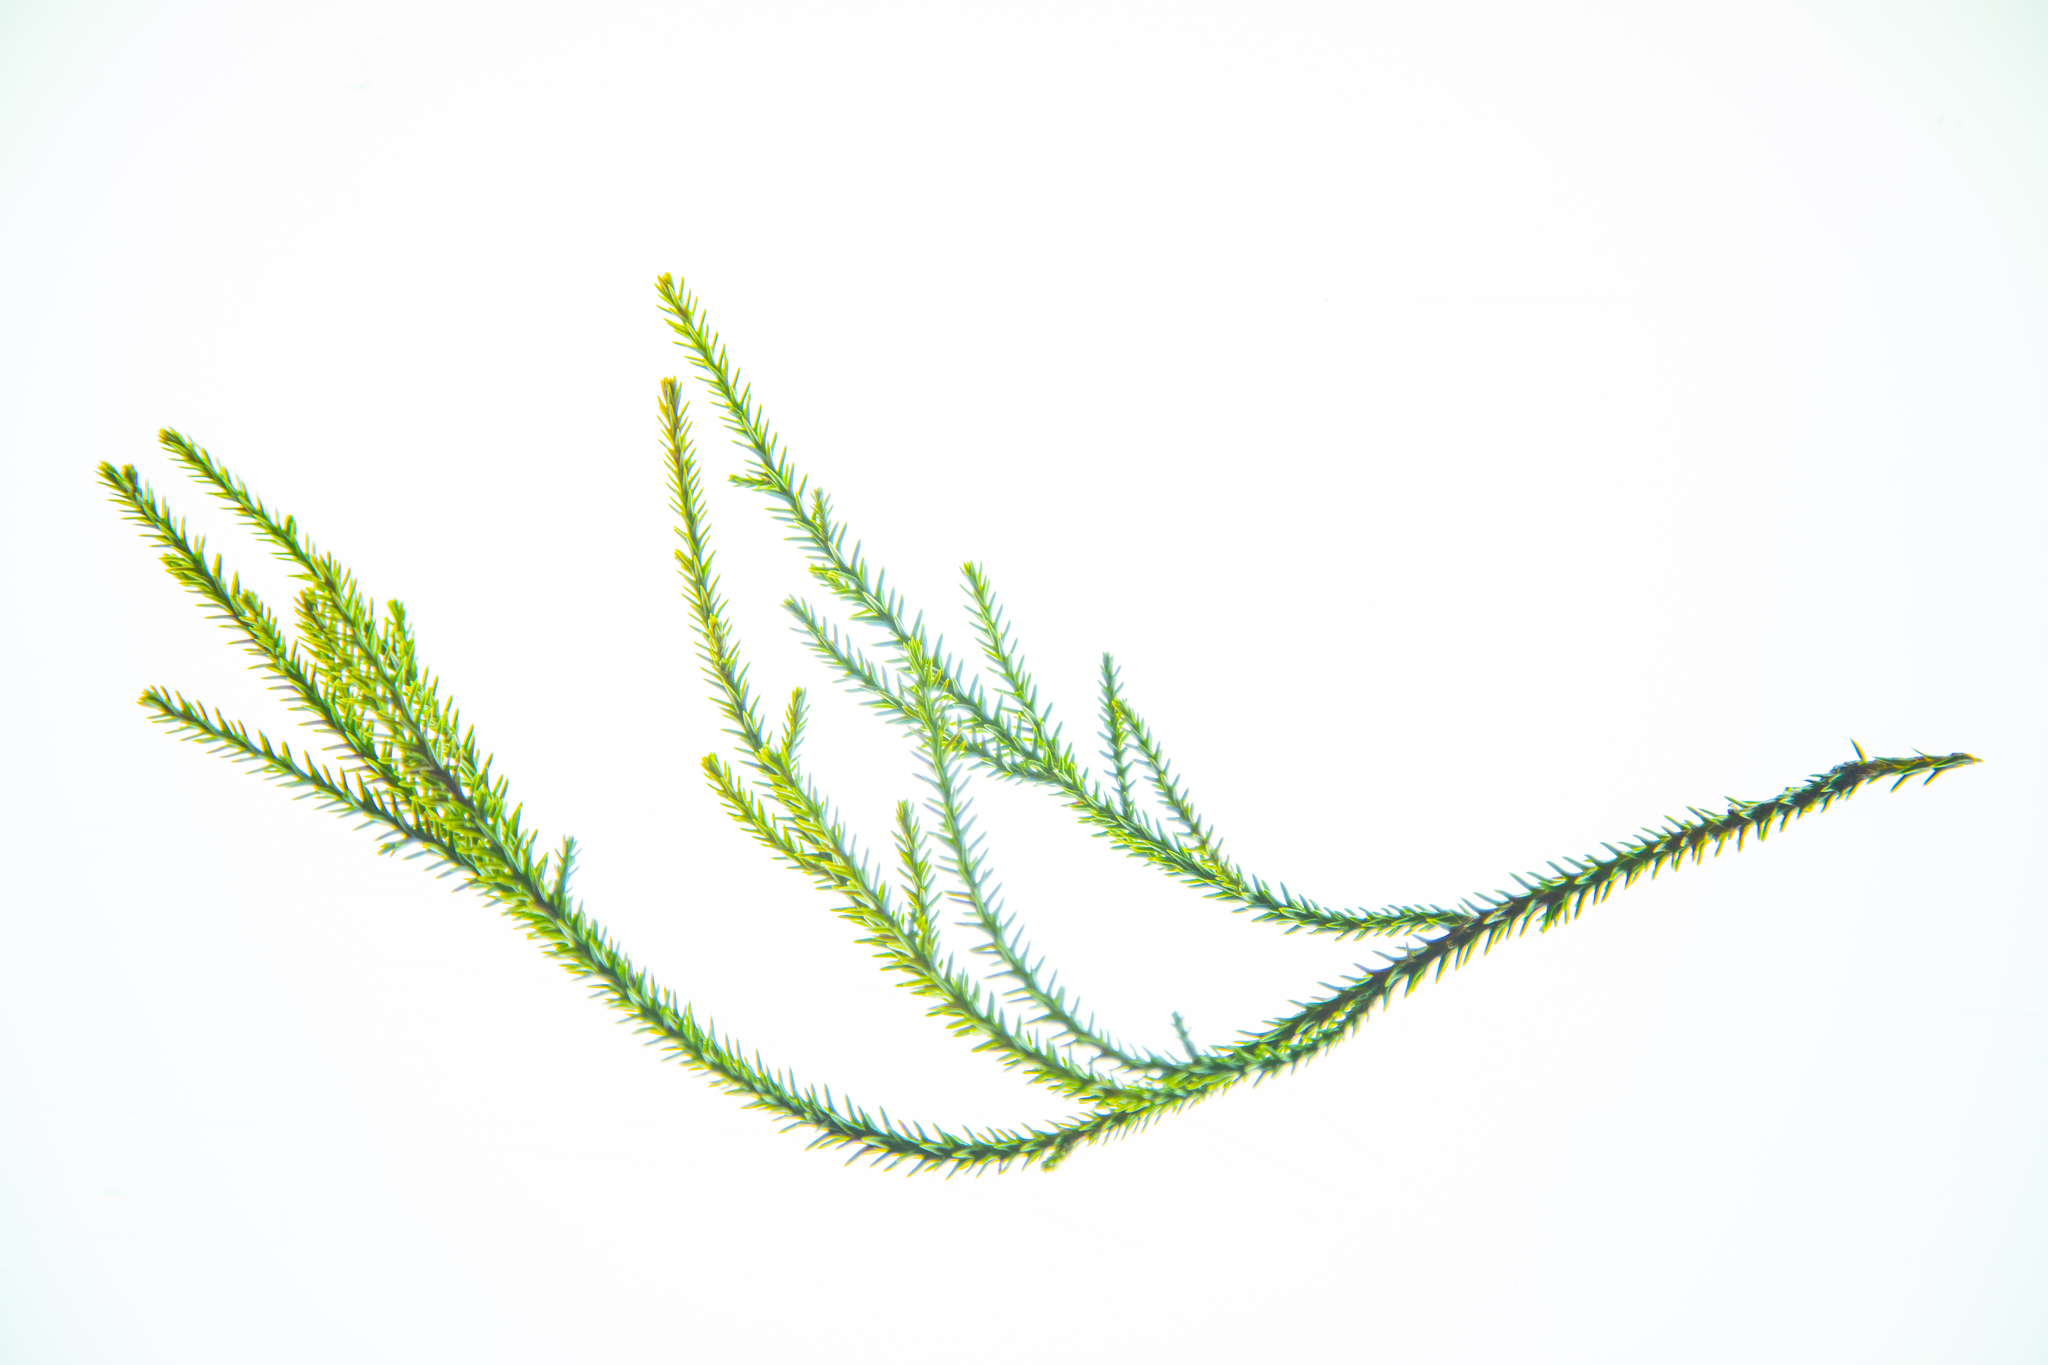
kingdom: Plantae
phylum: Tracheophyta
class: Pinopsida
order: Pinales
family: Podocarpaceae
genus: Dacrydium
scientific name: Dacrydium cupressinum
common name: Red pine
